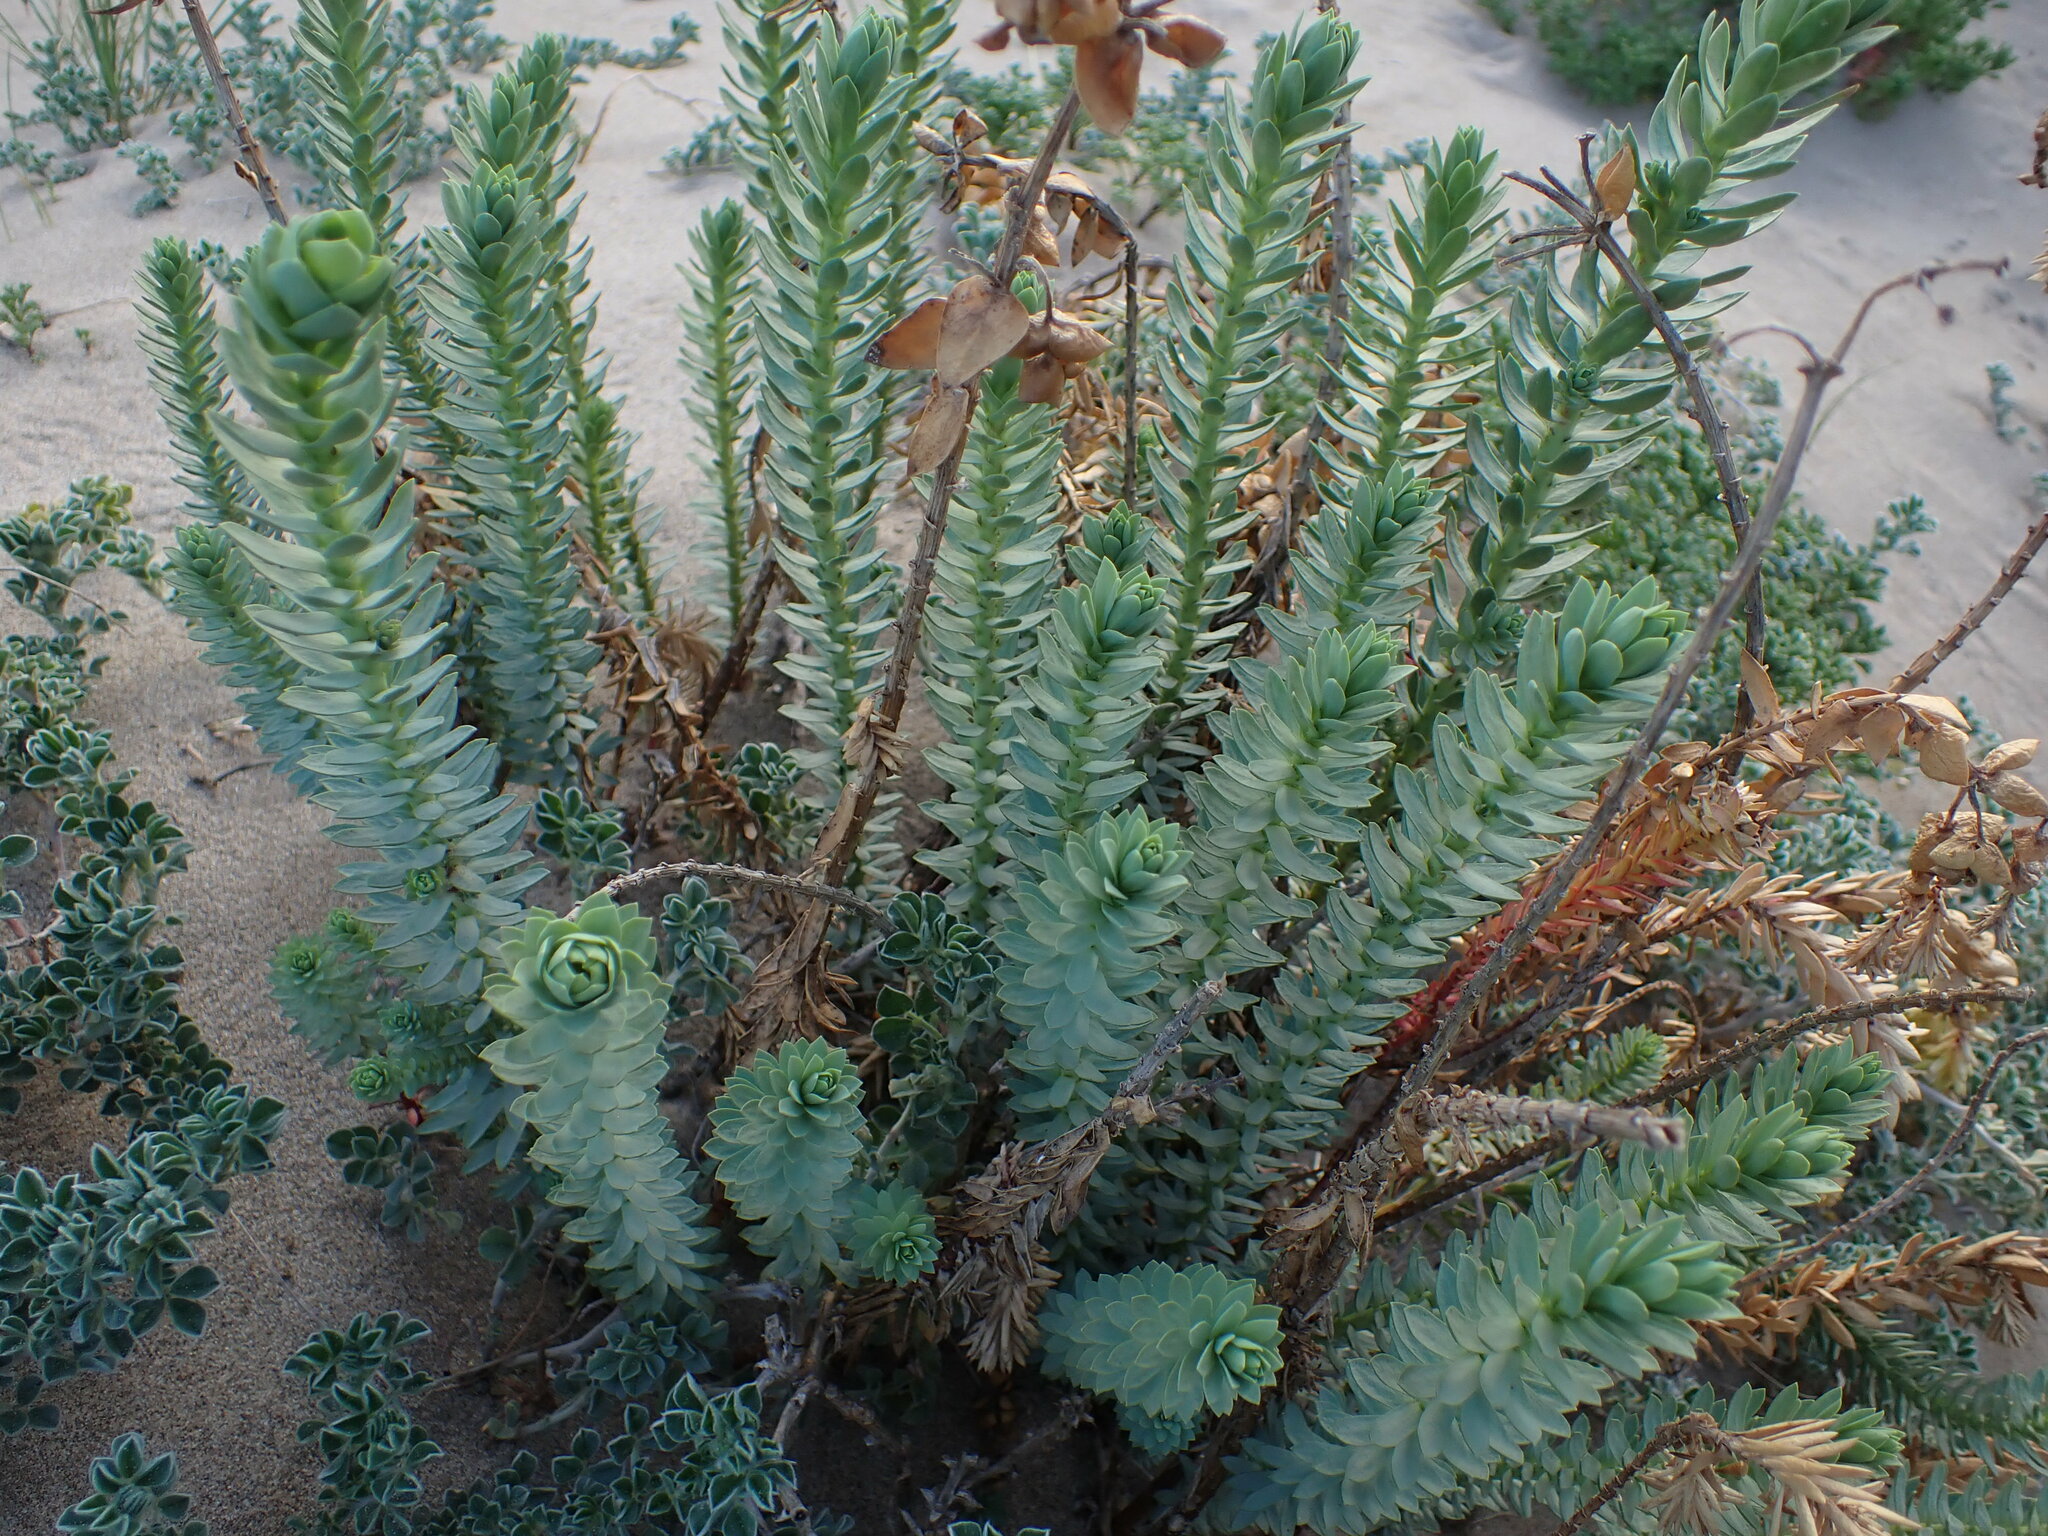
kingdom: Plantae
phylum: Tracheophyta
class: Magnoliopsida
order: Malpighiales
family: Euphorbiaceae
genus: Euphorbia
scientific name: Euphorbia paralias
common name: Sea spurge
